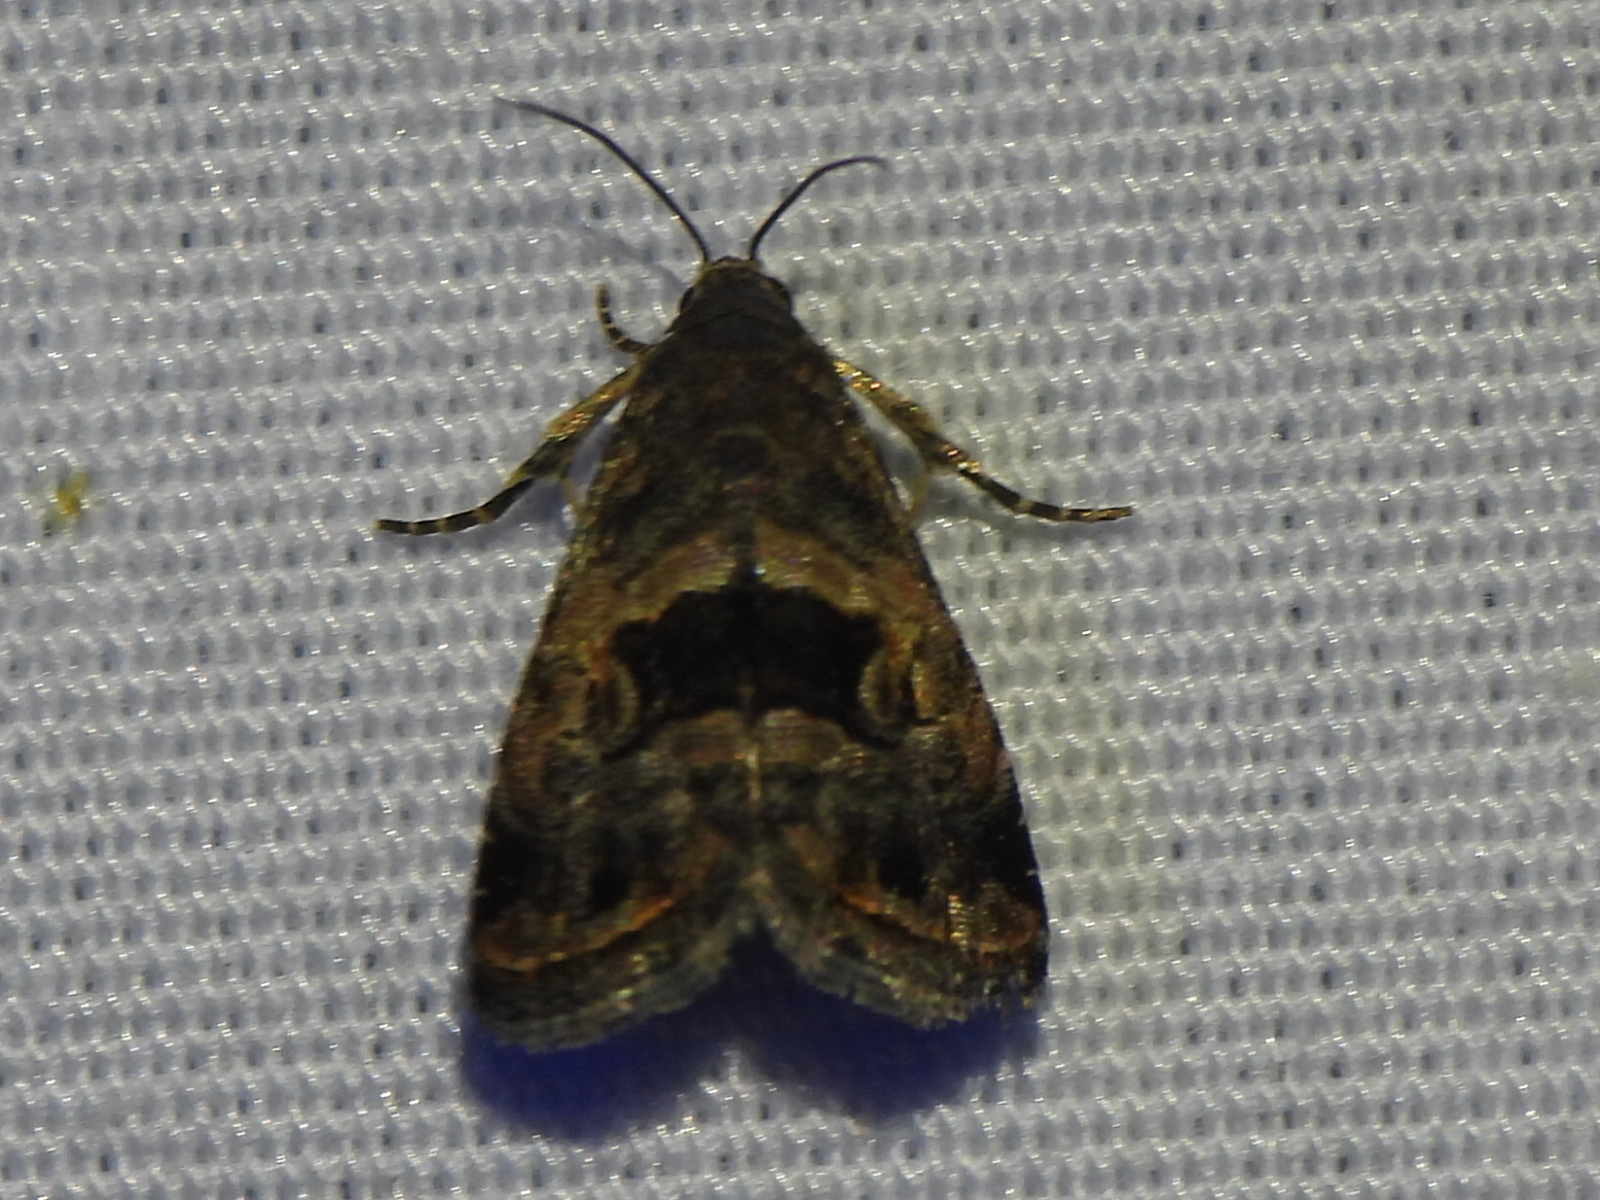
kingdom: Animalia
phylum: Arthropoda
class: Insecta
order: Lepidoptera
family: Noctuidae
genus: Tripudia
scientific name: Tripudia quadrifera
